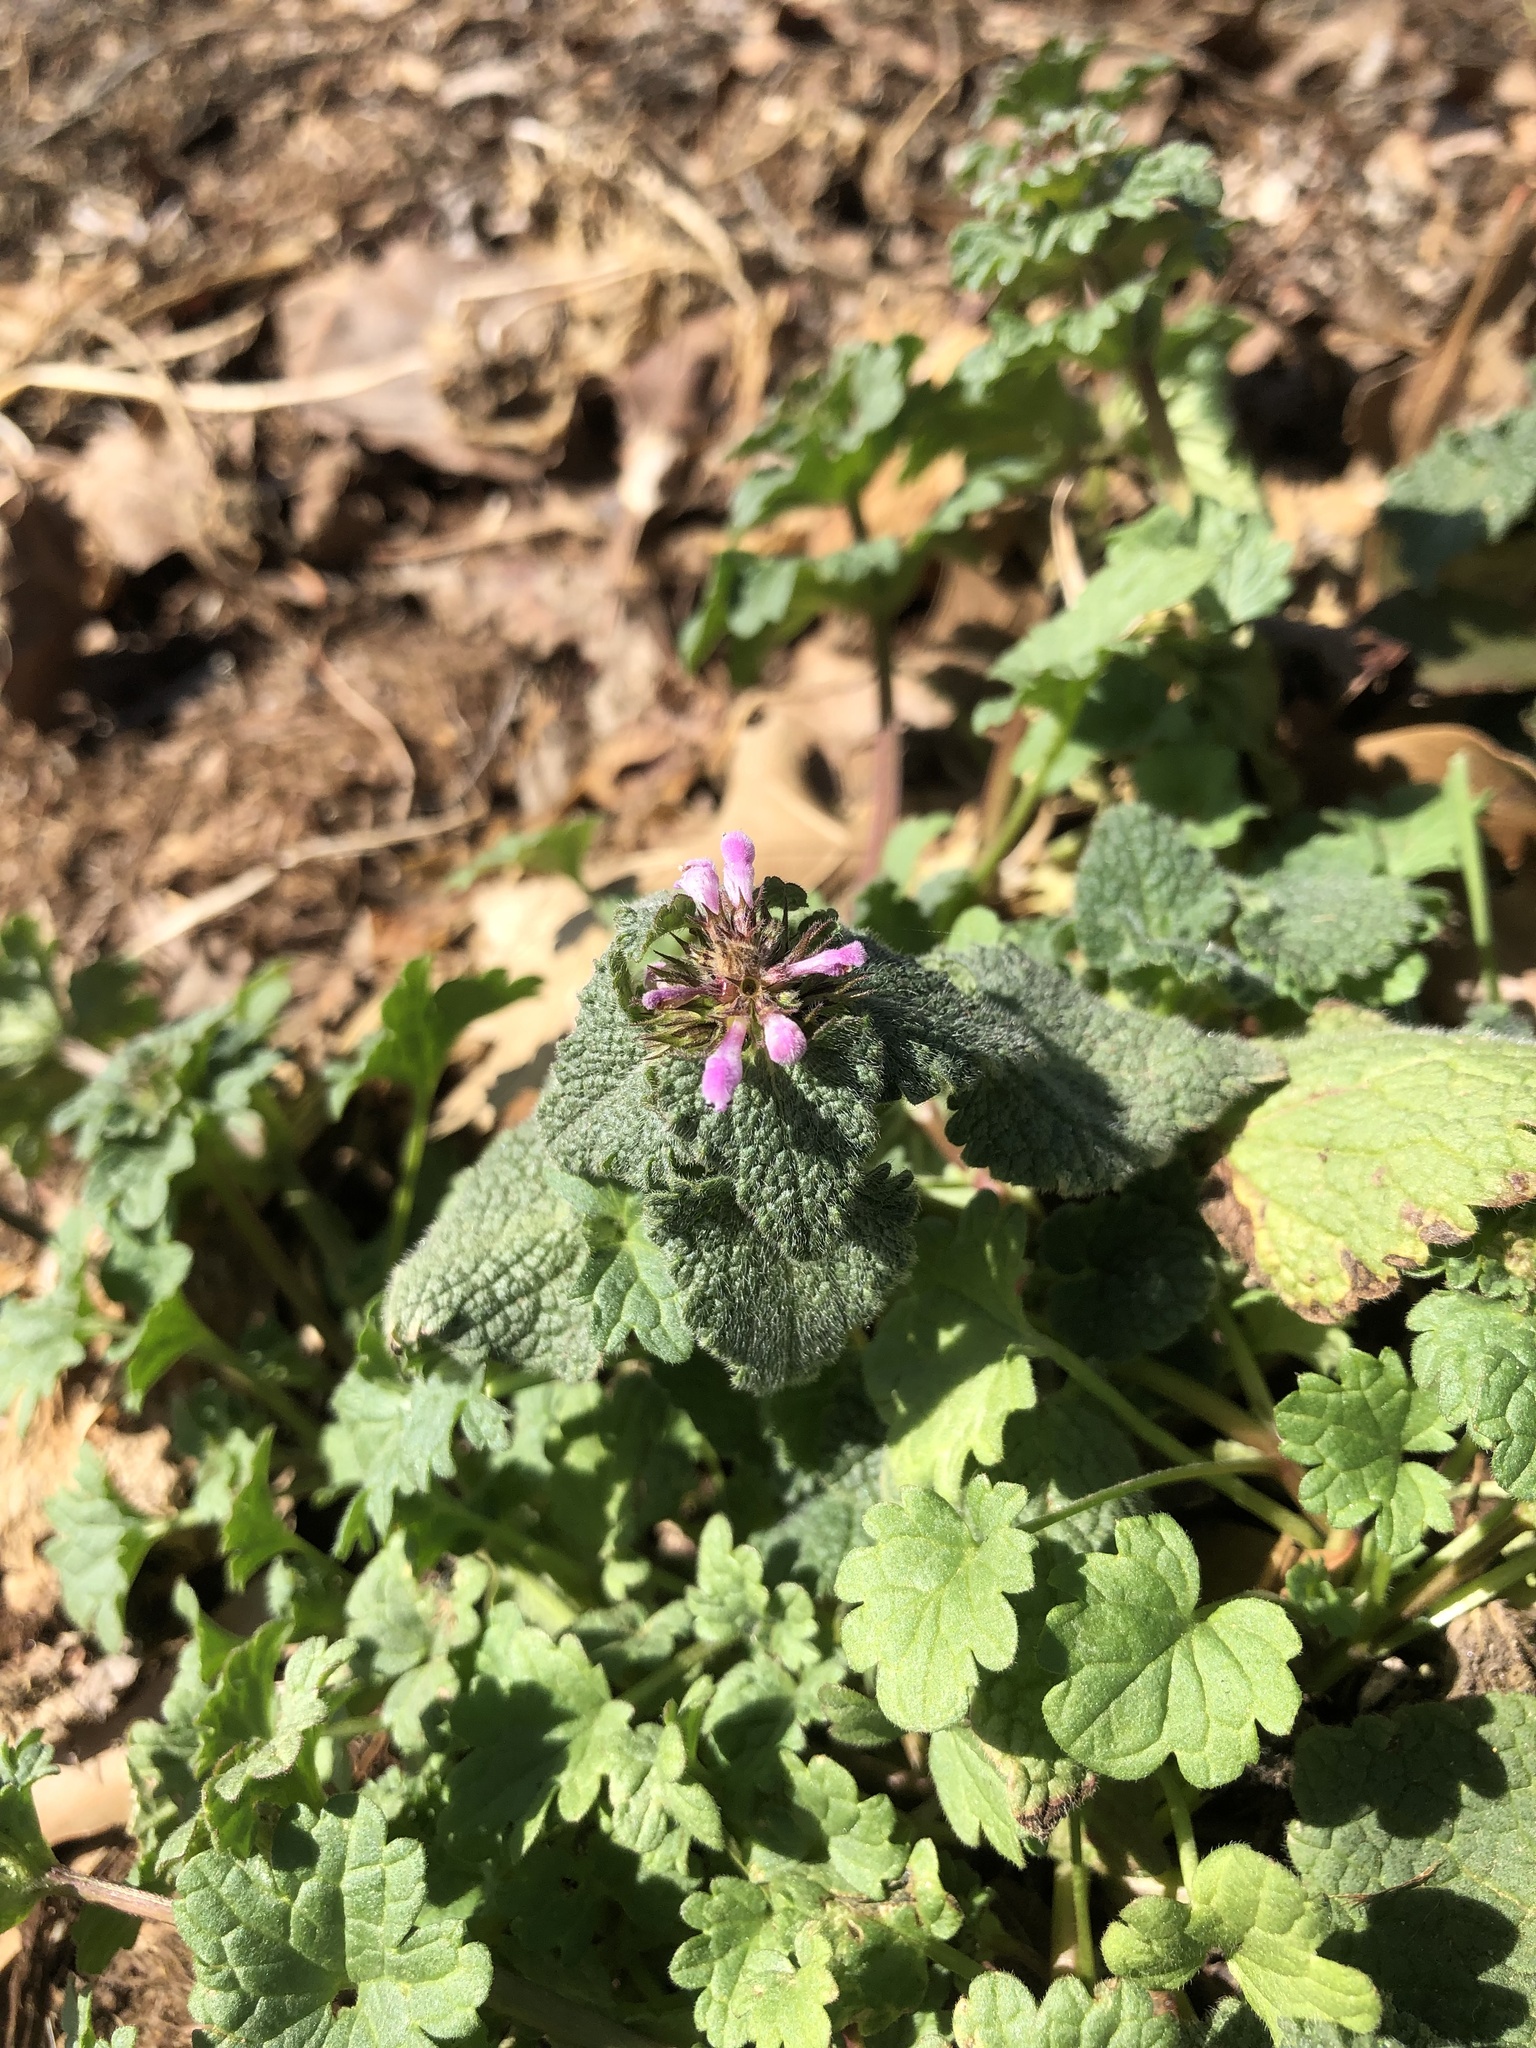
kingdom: Plantae
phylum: Tracheophyta
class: Magnoliopsida
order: Lamiales
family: Lamiaceae
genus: Lamium
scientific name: Lamium purpureum
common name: Red dead-nettle
